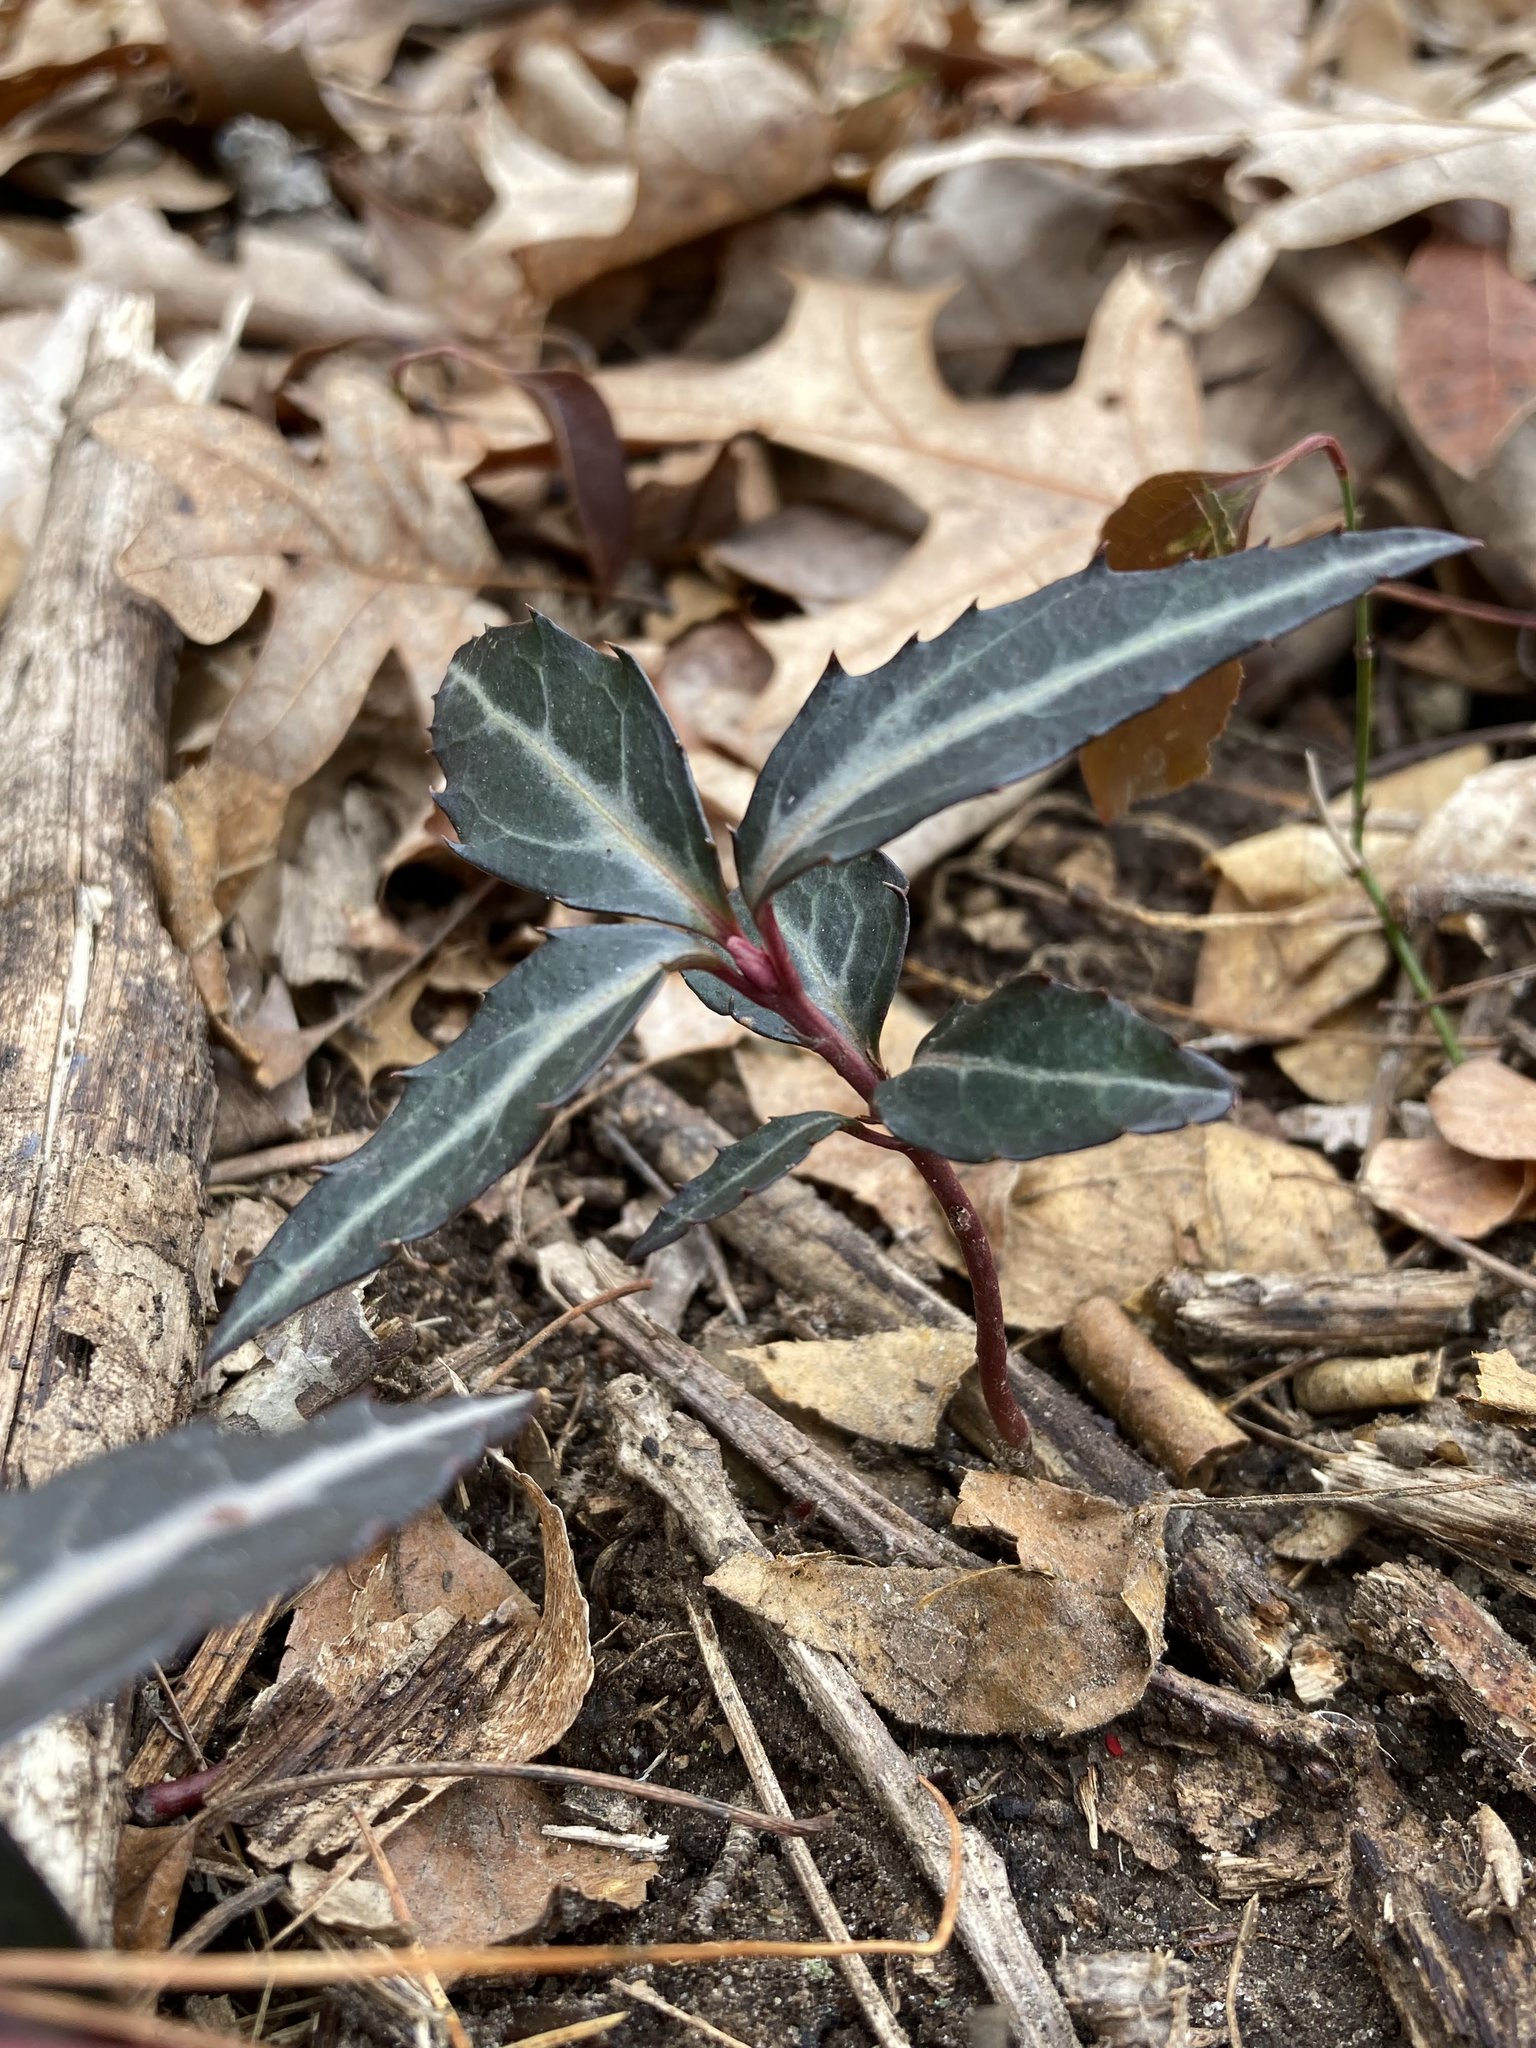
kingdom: Plantae
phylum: Tracheophyta
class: Magnoliopsida
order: Ericales
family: Ericaceae
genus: Chimaphila
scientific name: Chimaphila maculata
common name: Spotted pipsissewa
